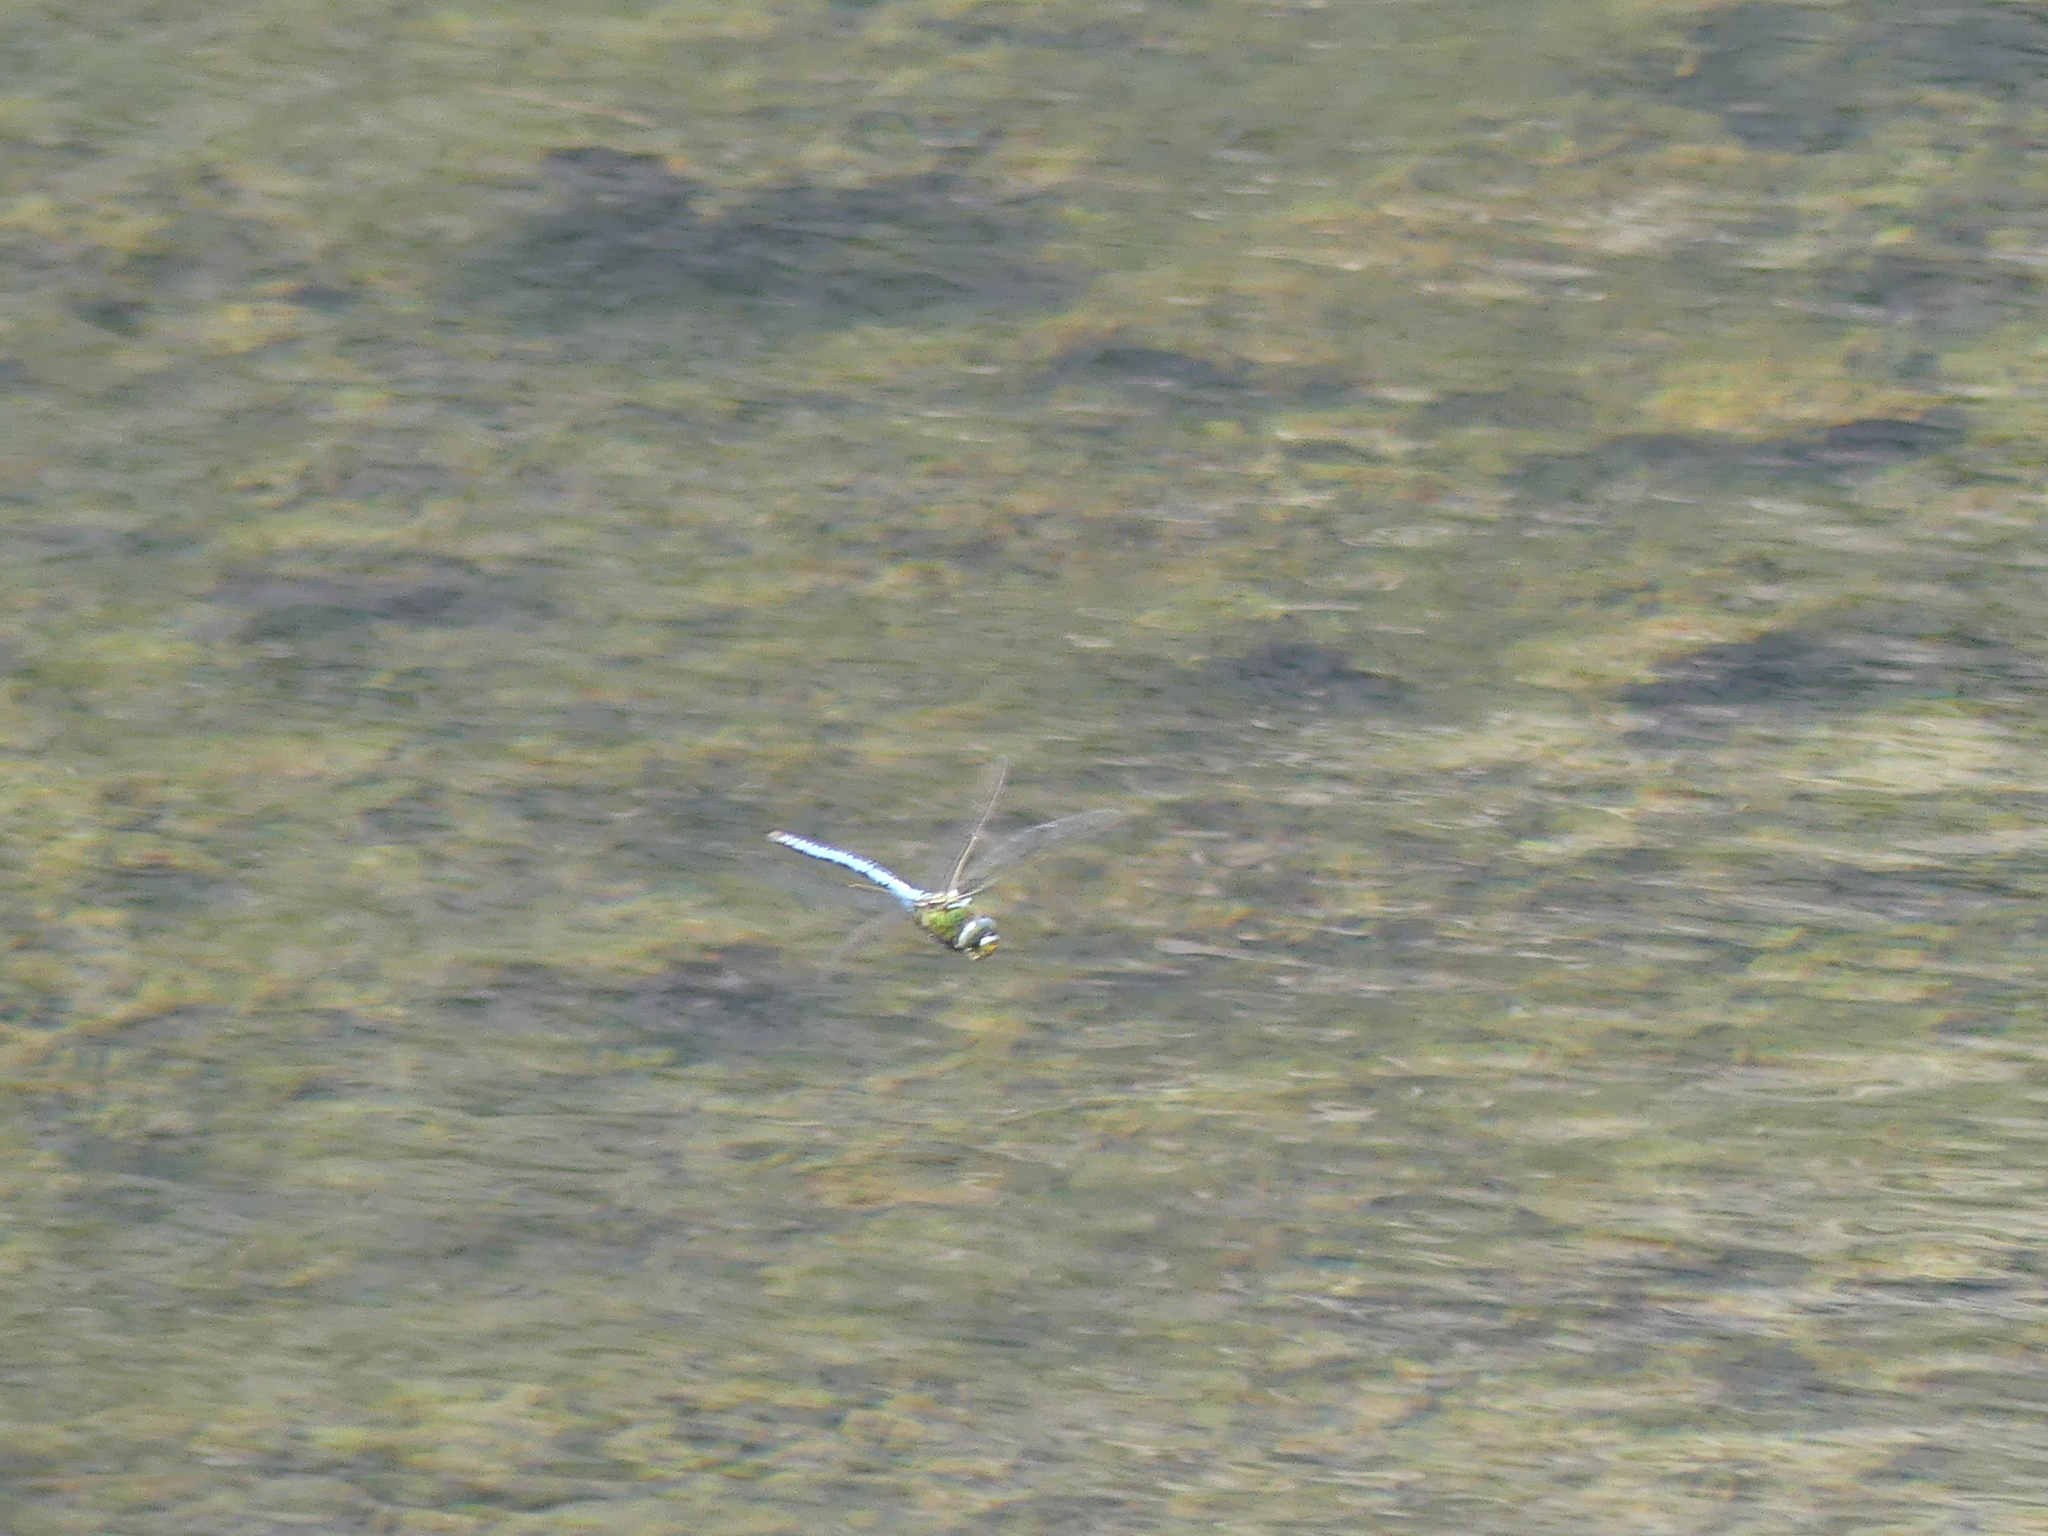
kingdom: Animalia
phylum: Arthropoda
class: Insecta
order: Odonata
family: Aeshnidae
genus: Anax
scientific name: Anax imperator
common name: Emperor dragonfly
